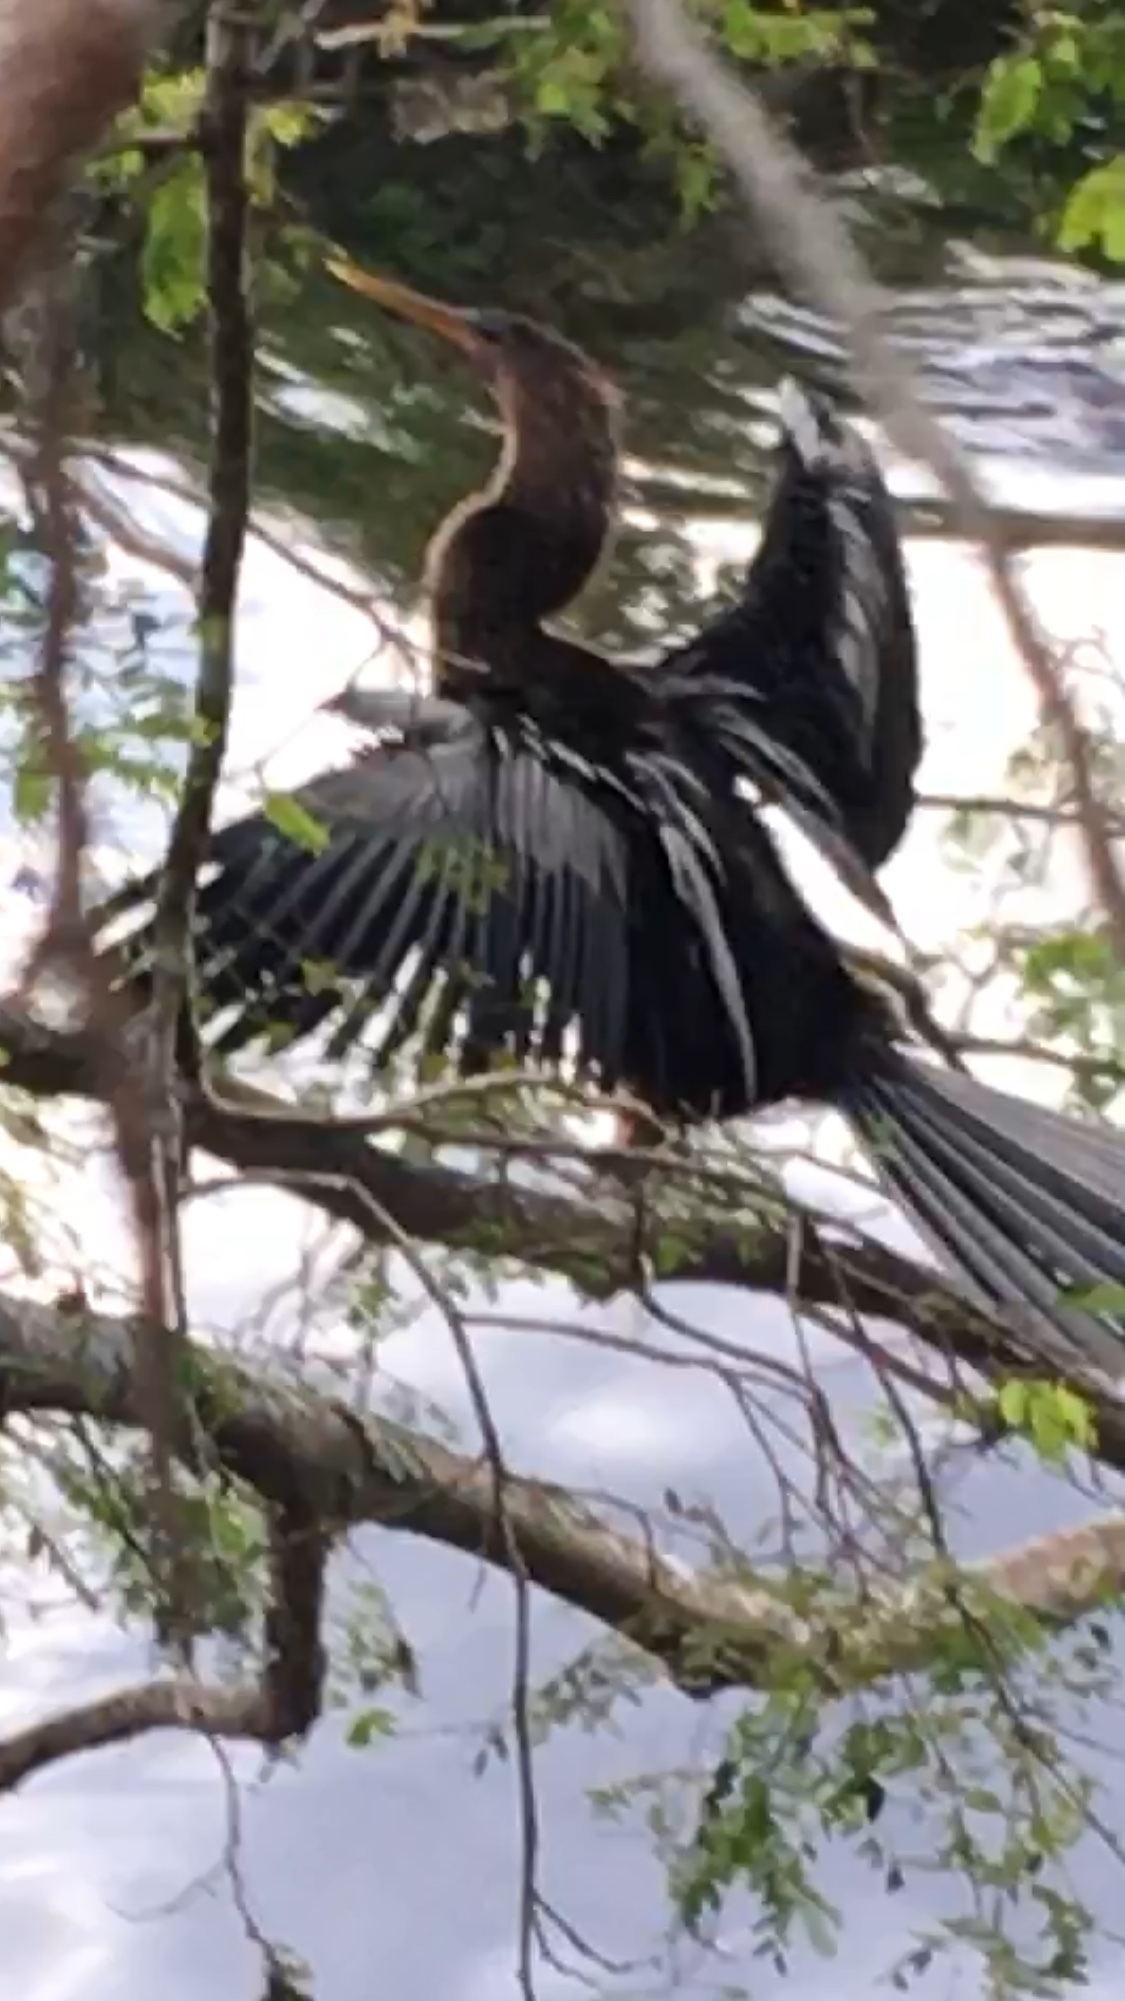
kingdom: Animalia
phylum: Chordata
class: Aves
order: Suliformes
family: Anhingidae
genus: Anhinga
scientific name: Anhinga anhinga
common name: Anhinga
